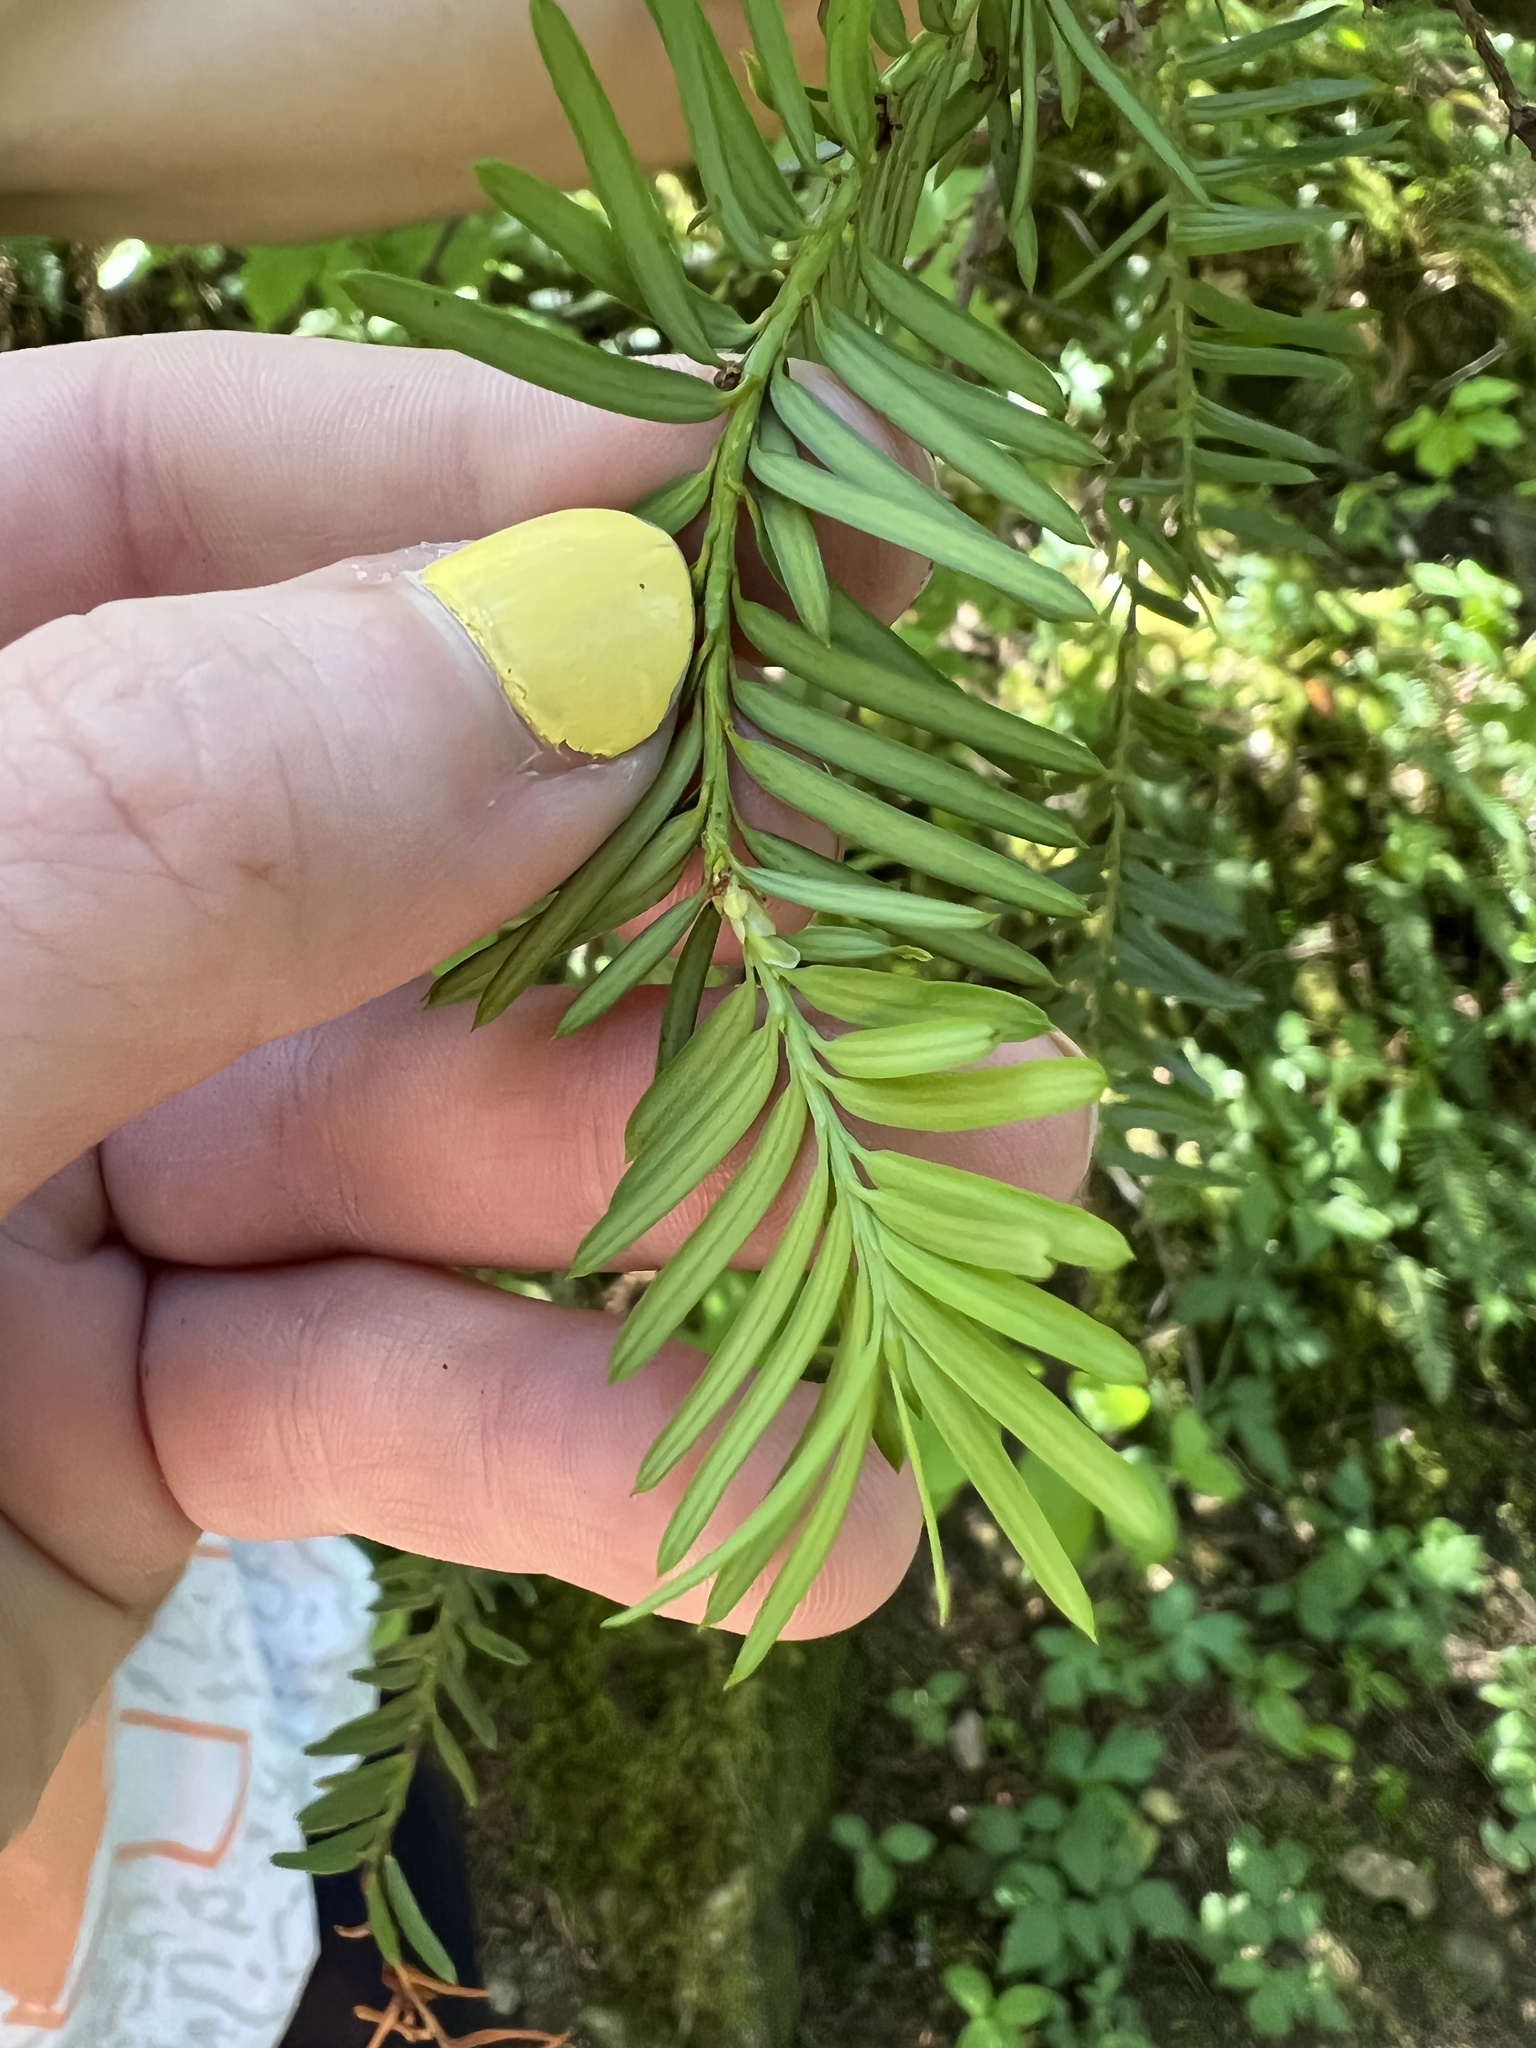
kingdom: Plantae
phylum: Tracheophyta
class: Pinopsida
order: Pinales
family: Taxaceae
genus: Taxus
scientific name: Taxus brevifolia
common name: Pacific yew
